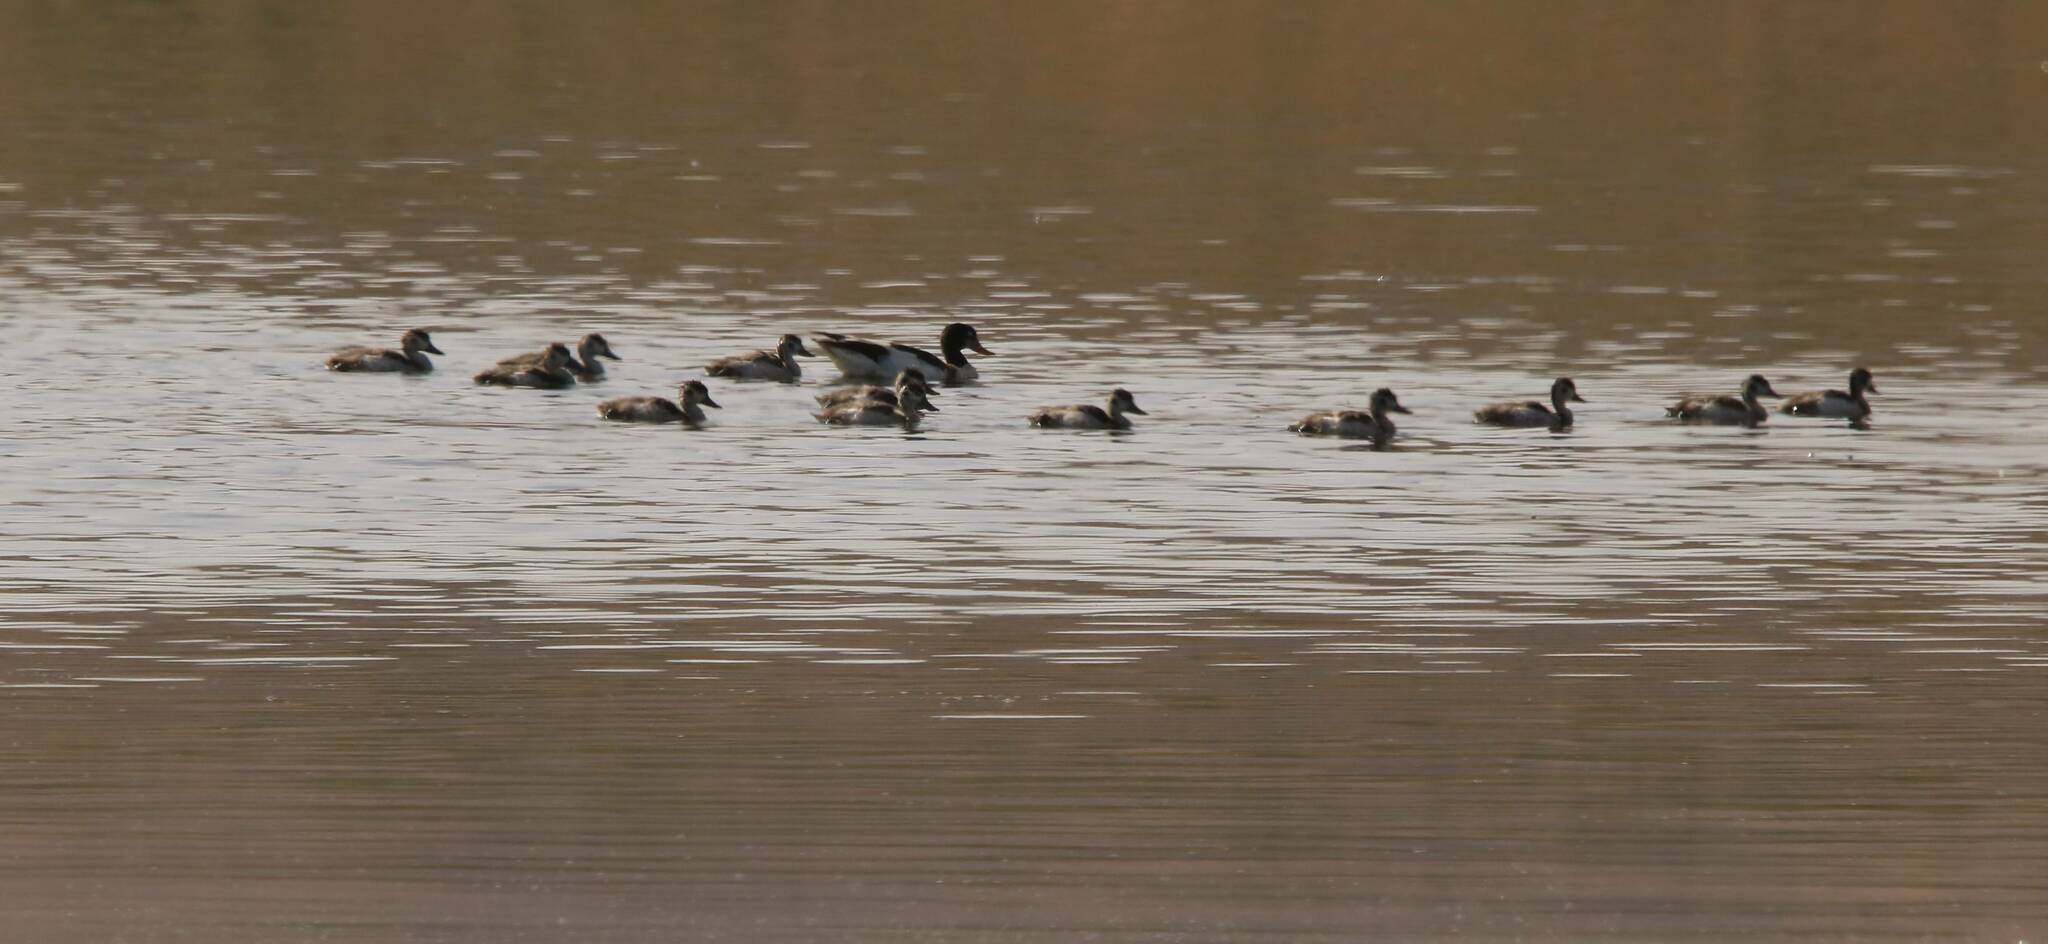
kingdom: Animalia
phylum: Chordata
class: Aves
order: Anseriformes
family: Anatidae
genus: Tadorna
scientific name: Tadorna tadorna
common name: Common shelduck
